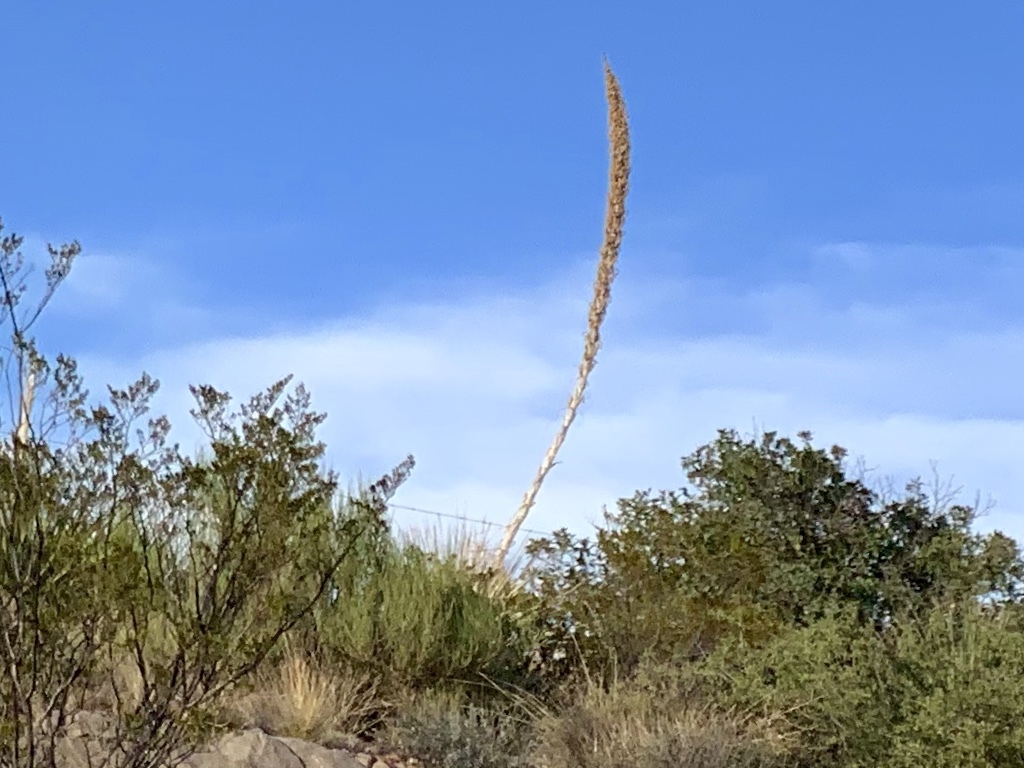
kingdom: Plantae
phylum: Tracheophyta
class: Liliopsida
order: Asparagales
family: Asparagaceae
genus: Dasylirion
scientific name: Dasylirion wheeleri
